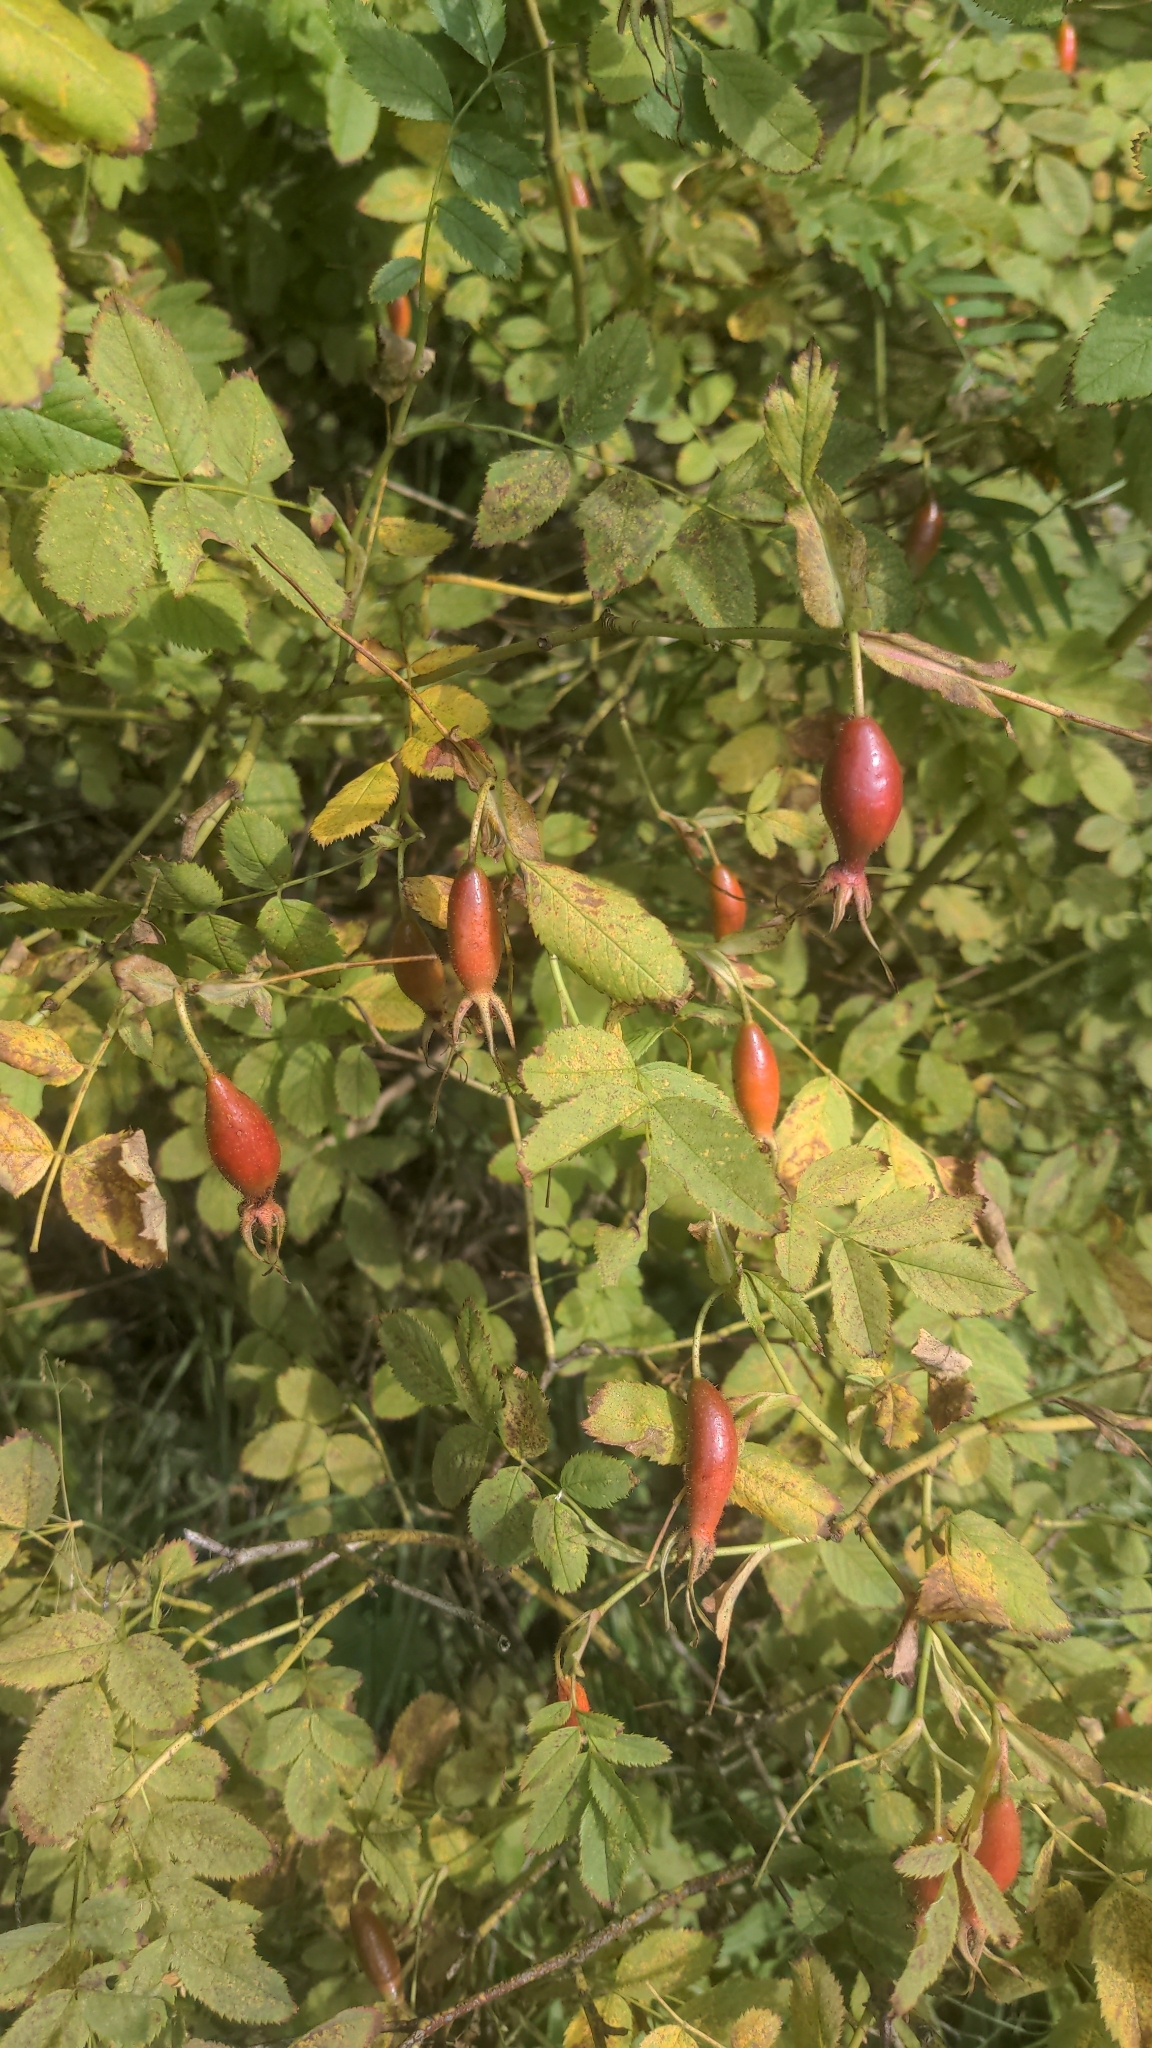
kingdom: Plantae
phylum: Tracheophyta
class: Magnoliopsida
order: Rosales
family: Rosaceae
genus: Rosa
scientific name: Rosa pendulina
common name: Alpine rose
